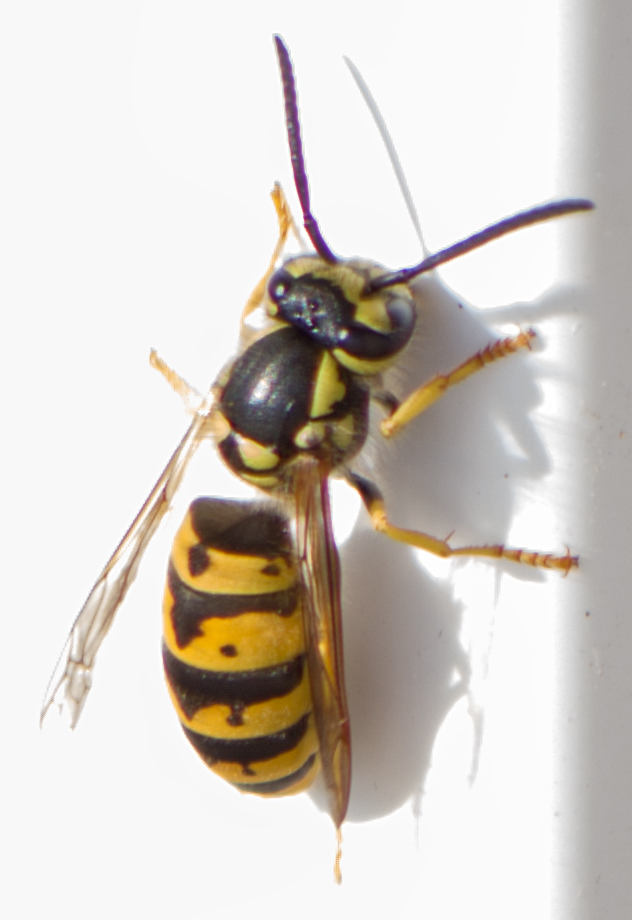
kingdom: Animalia
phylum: Arthropoda
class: Insecta
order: Hymenoptera
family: Vespidae
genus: Vespula
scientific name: Vespula germanica
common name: German wasp
